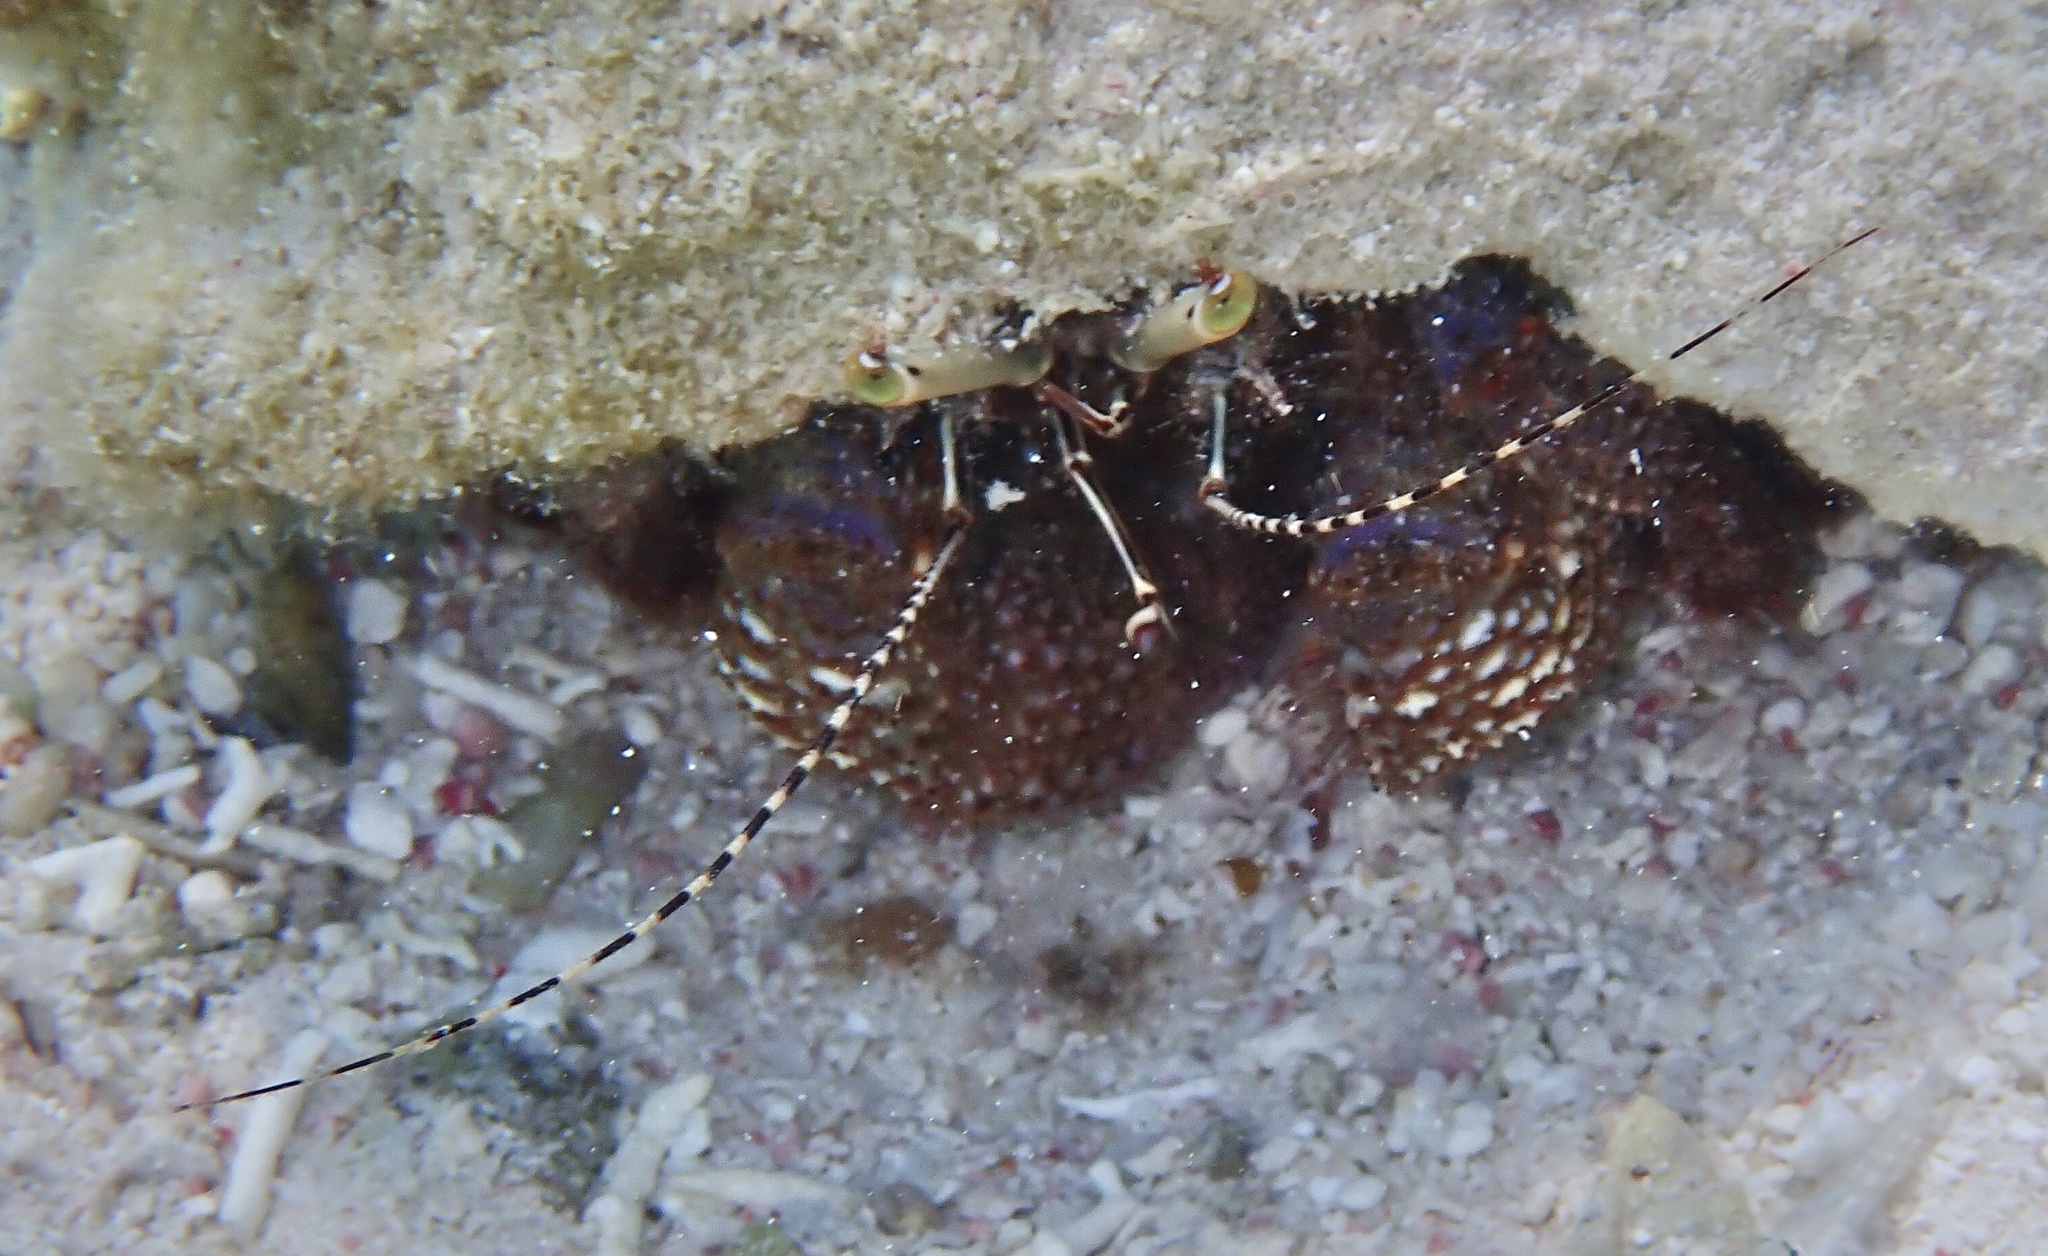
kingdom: Animalia
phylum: Arthropoda
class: Malacostraca
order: Decapoda
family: Diogenidae
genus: Petrochirus
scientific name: Petrochirus diogenes
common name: Giant hermit crab
